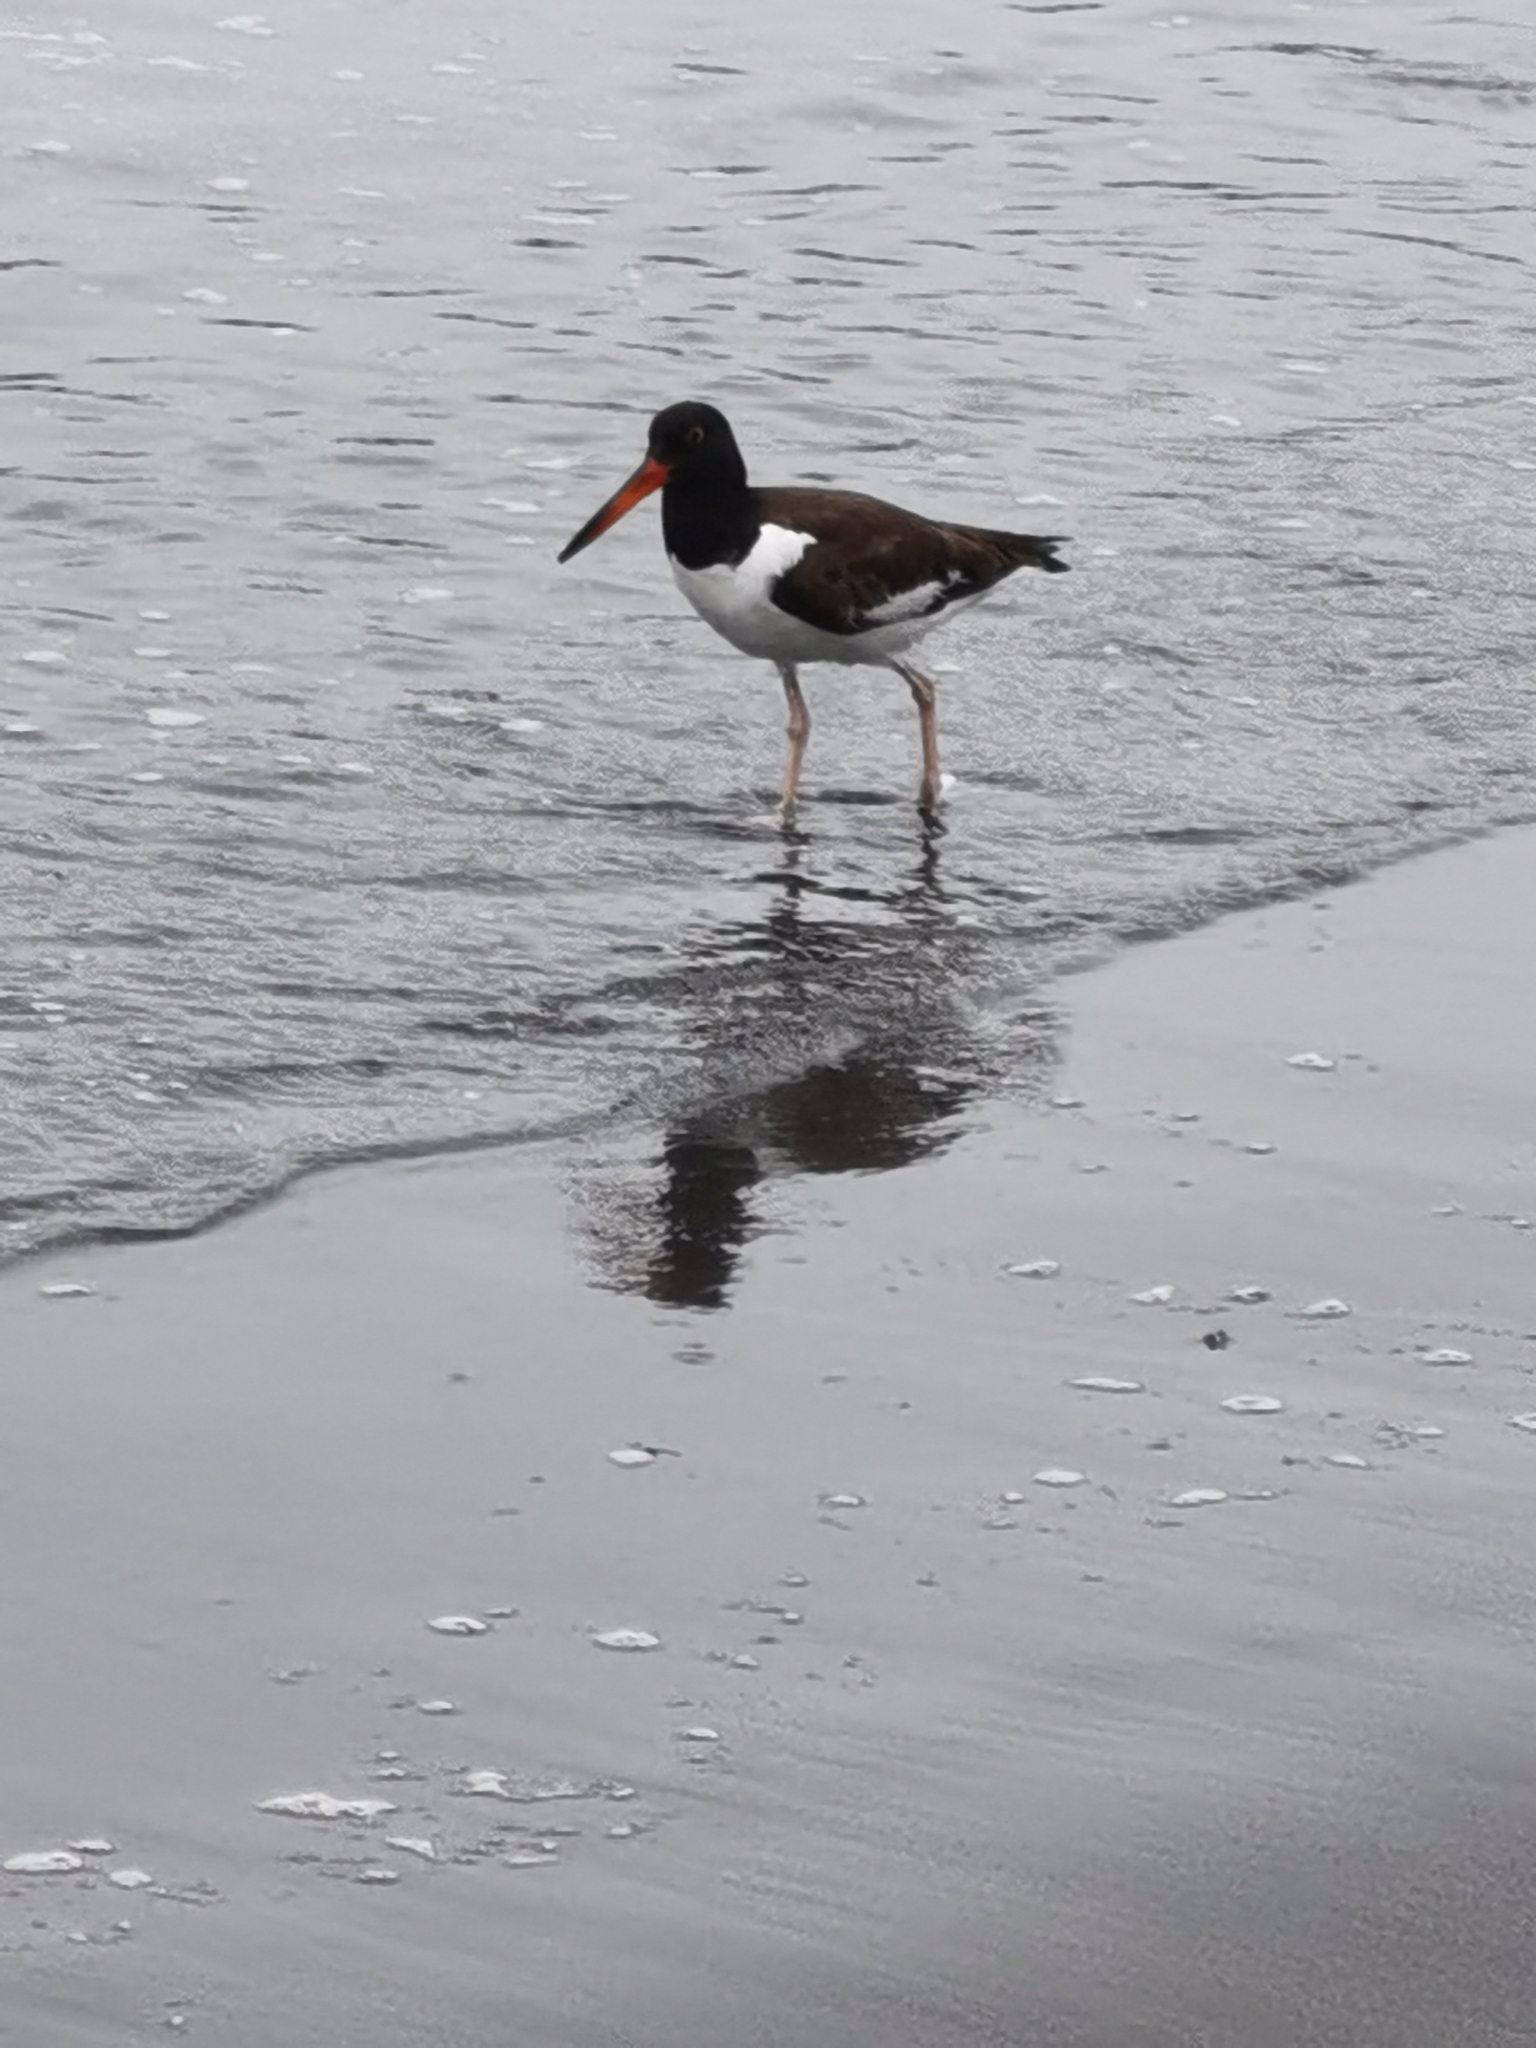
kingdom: Animalia
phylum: Chordata
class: Aves
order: Charadriiformes
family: Haematopodidae
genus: Haematopus
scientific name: Haematopus palliatus
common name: American oystercatcher
